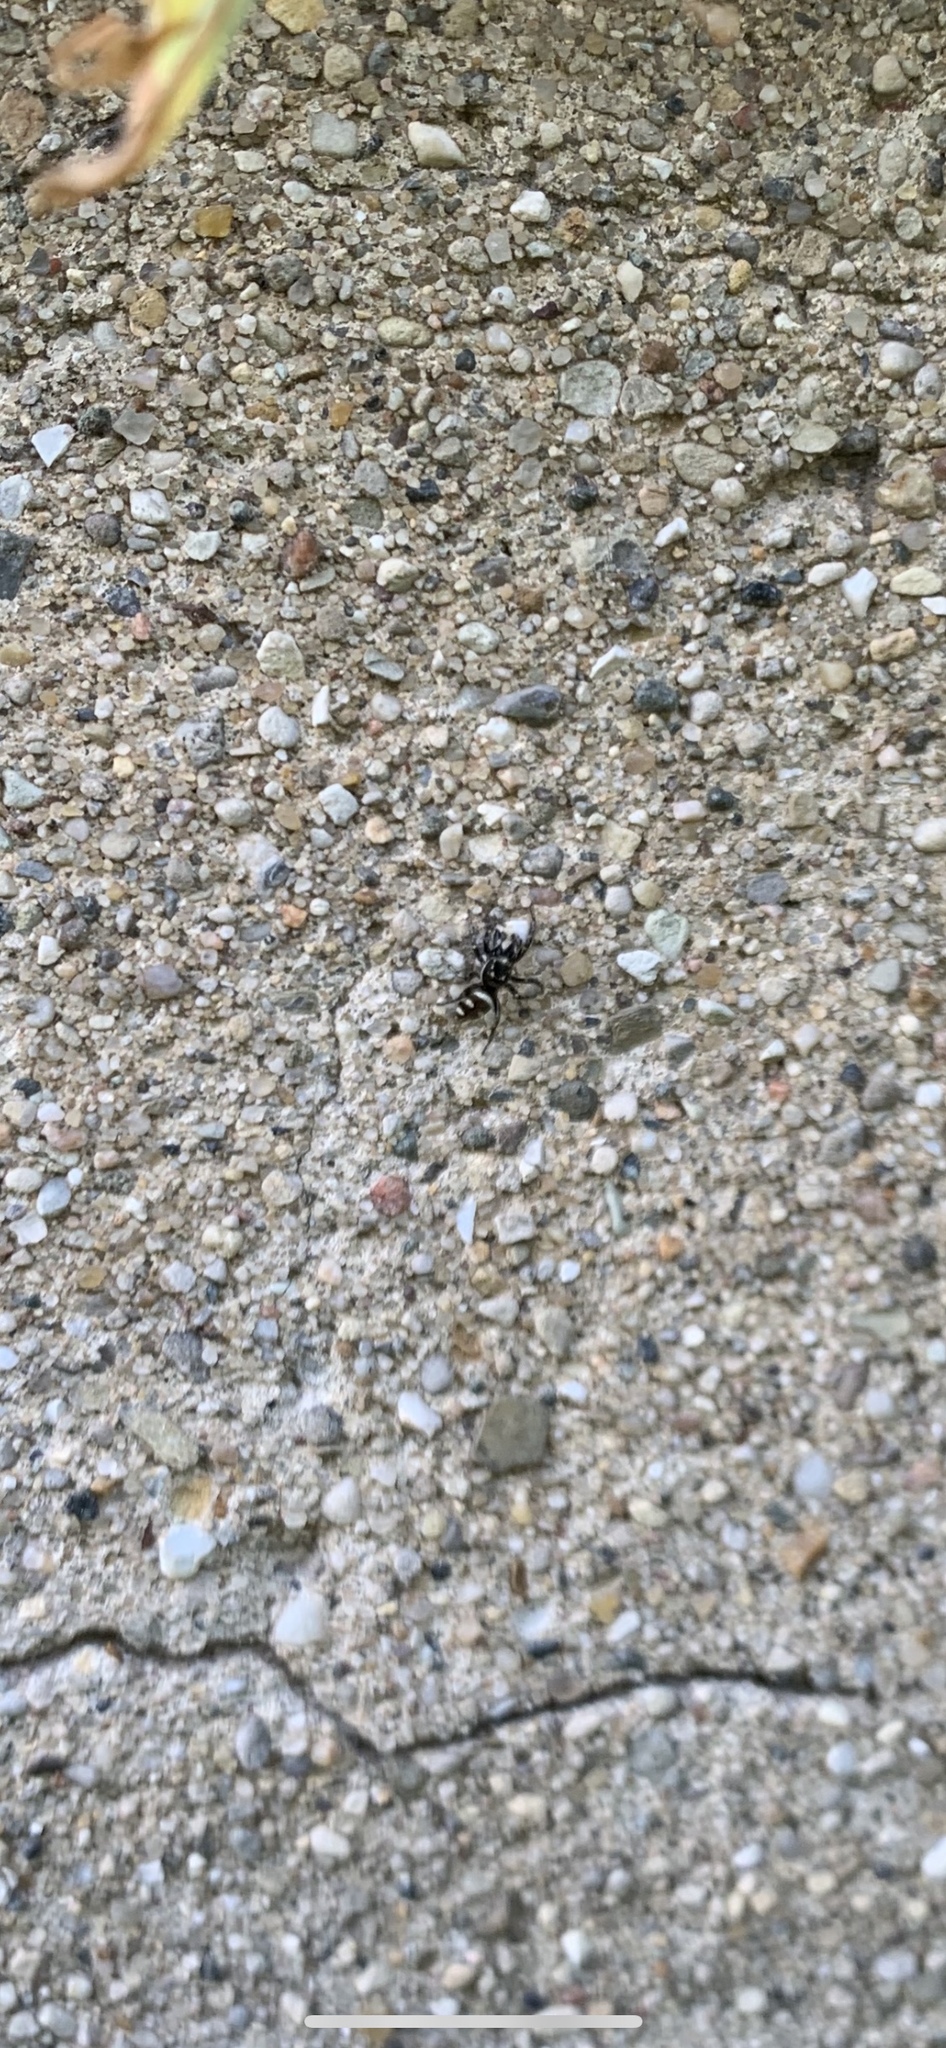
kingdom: Animalia
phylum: Arthropoda
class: Arachnida
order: Araneae
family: Salticidae
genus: Salticus
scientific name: Salticus scenicus
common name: Zebra jumper
